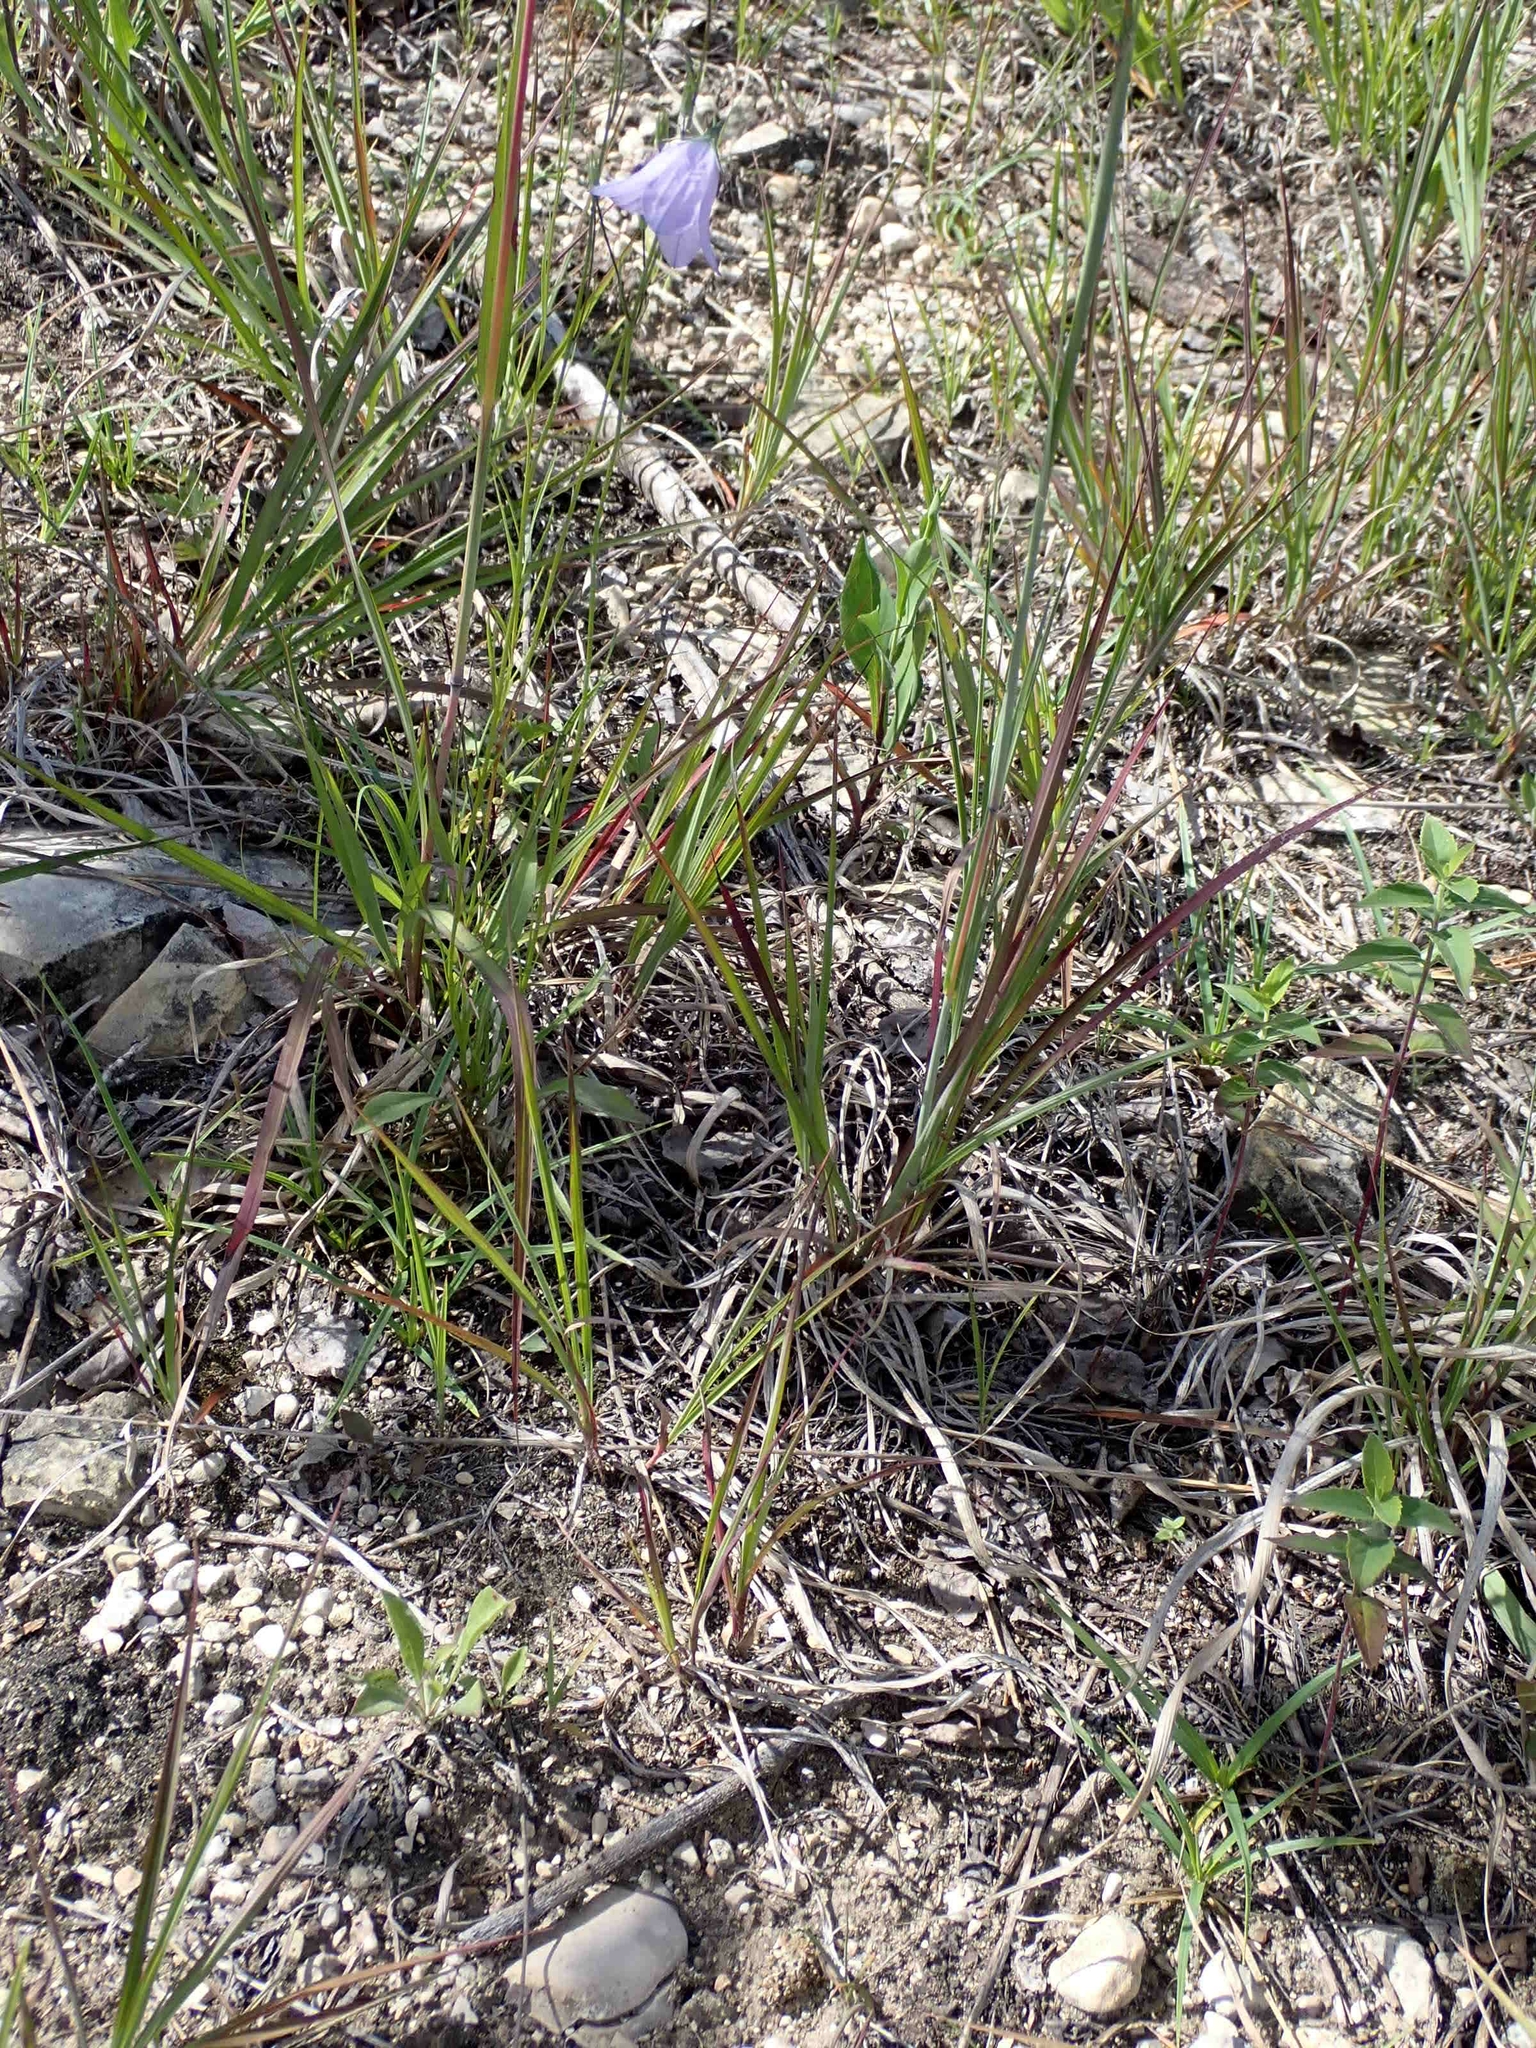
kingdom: Plantae
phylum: Tracheophyta
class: Magnoliopsida
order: Asterales
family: Campanulaceae
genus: Campanula
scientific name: Campanula petiolata
